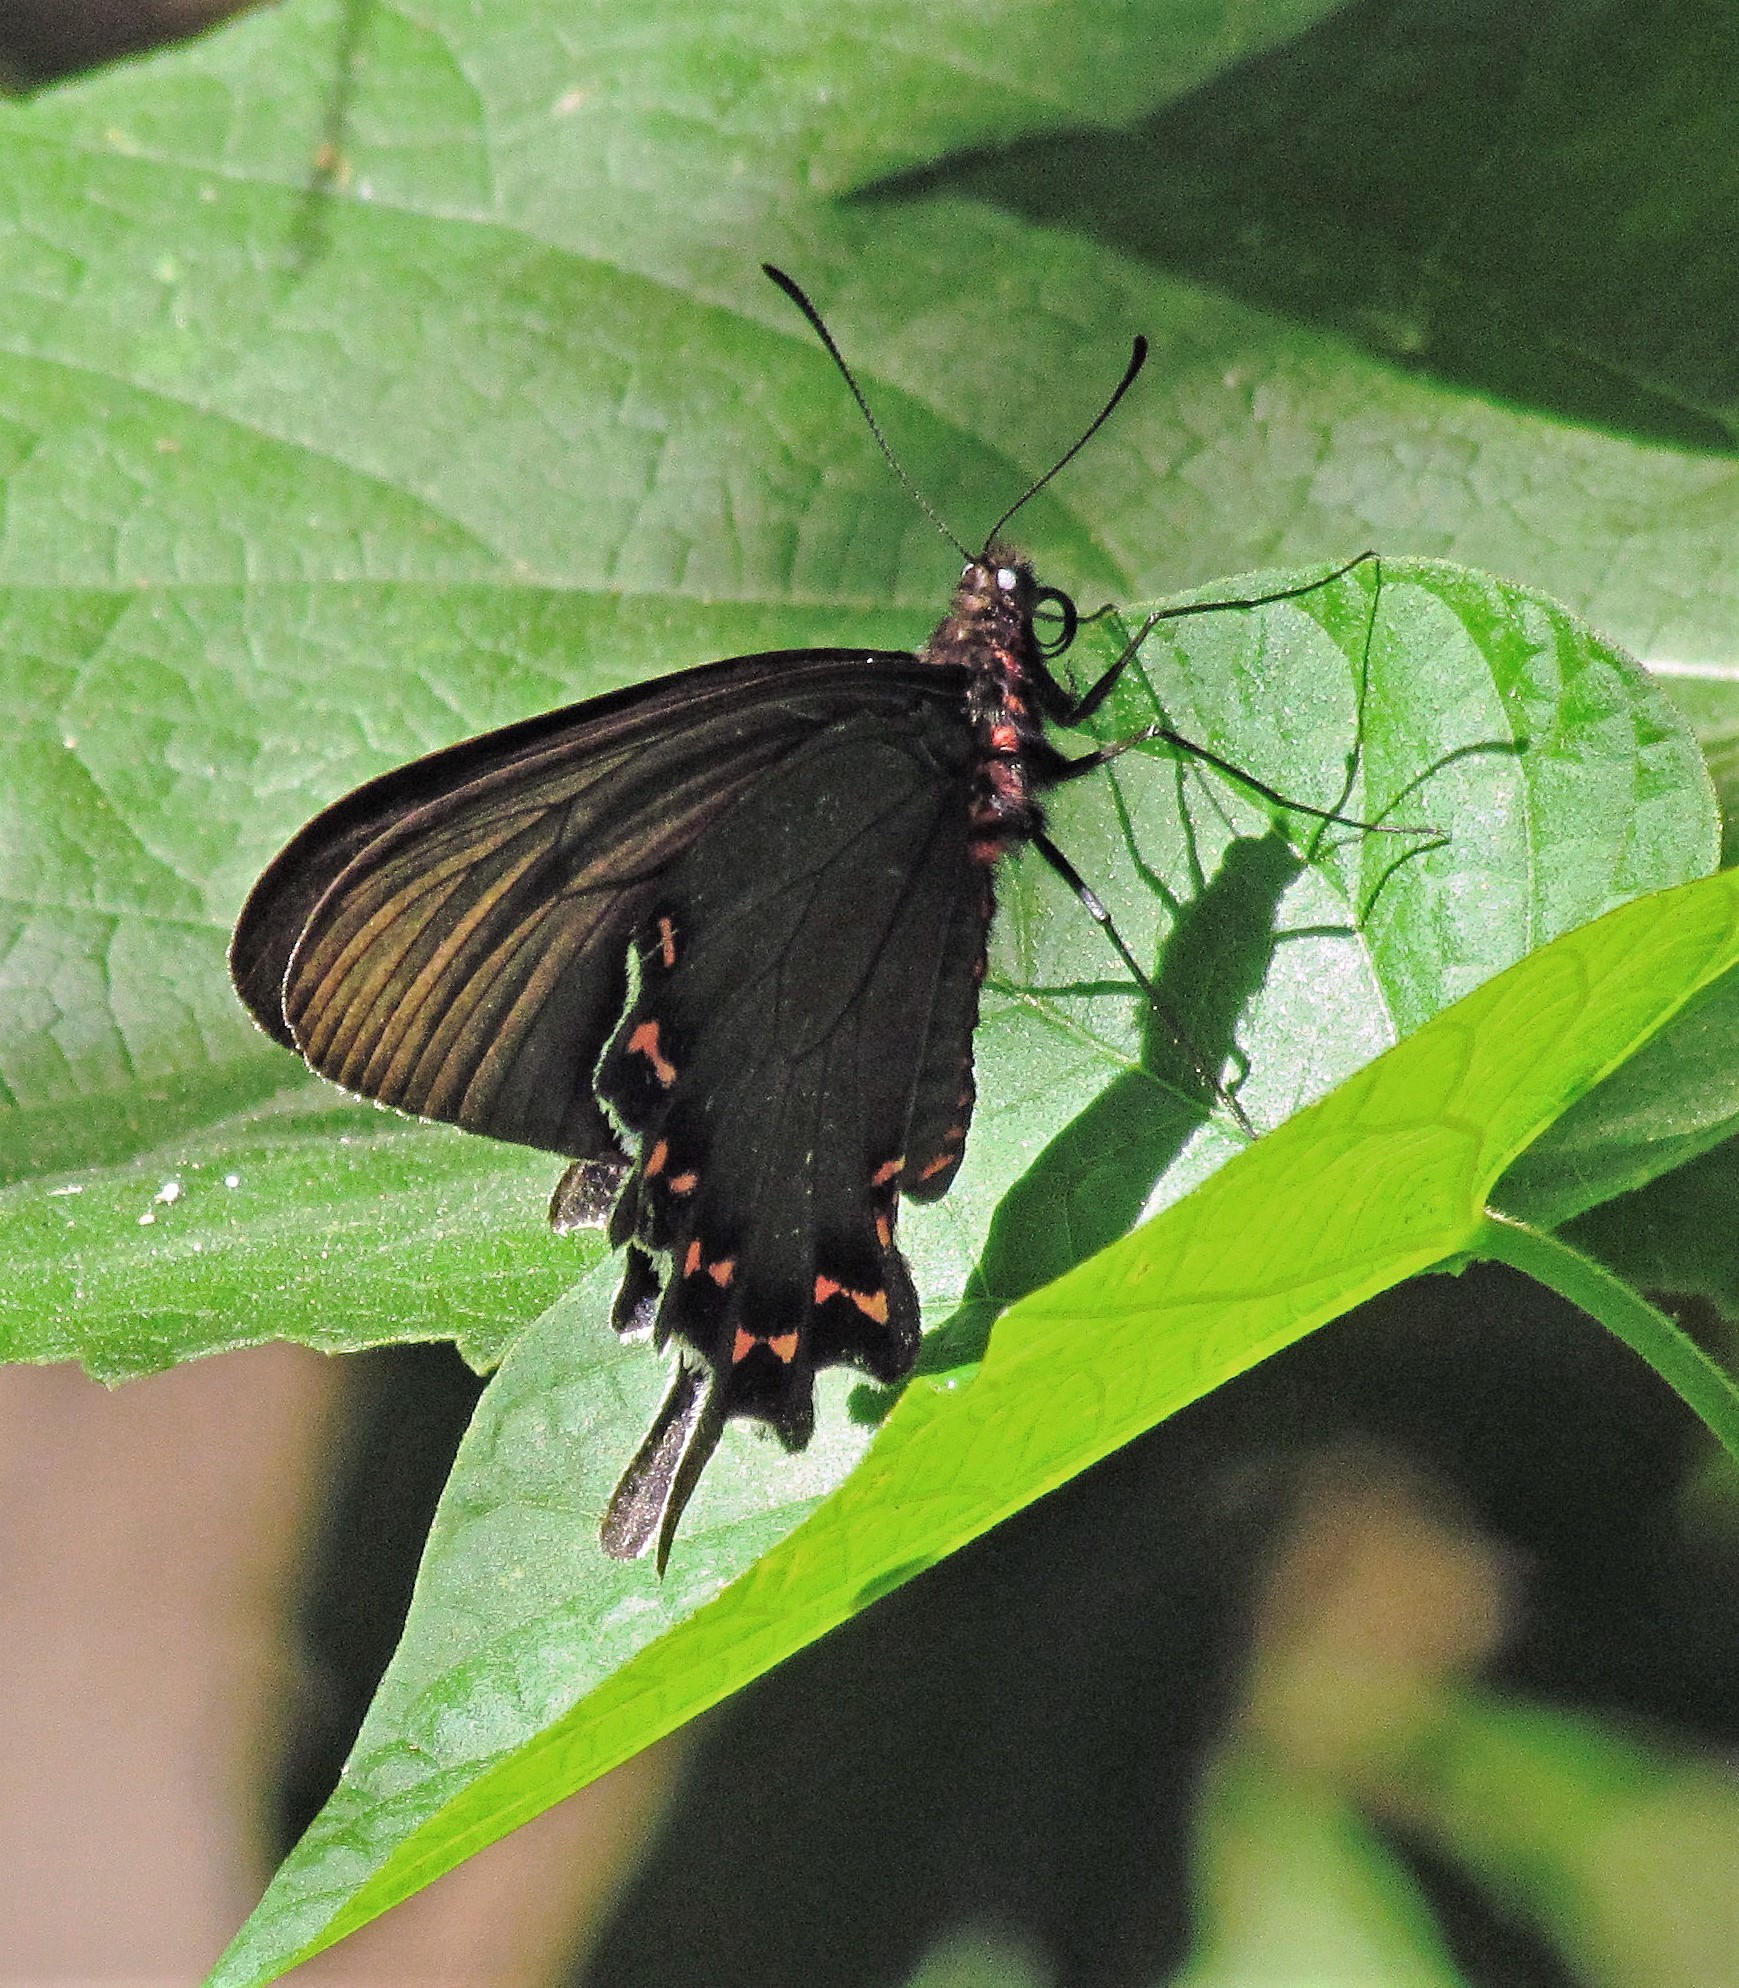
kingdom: Animalia
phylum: Arthropoda
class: Insecta
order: Lepidoptera
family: Papilionidae
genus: Parides
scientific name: Parides bunichus
